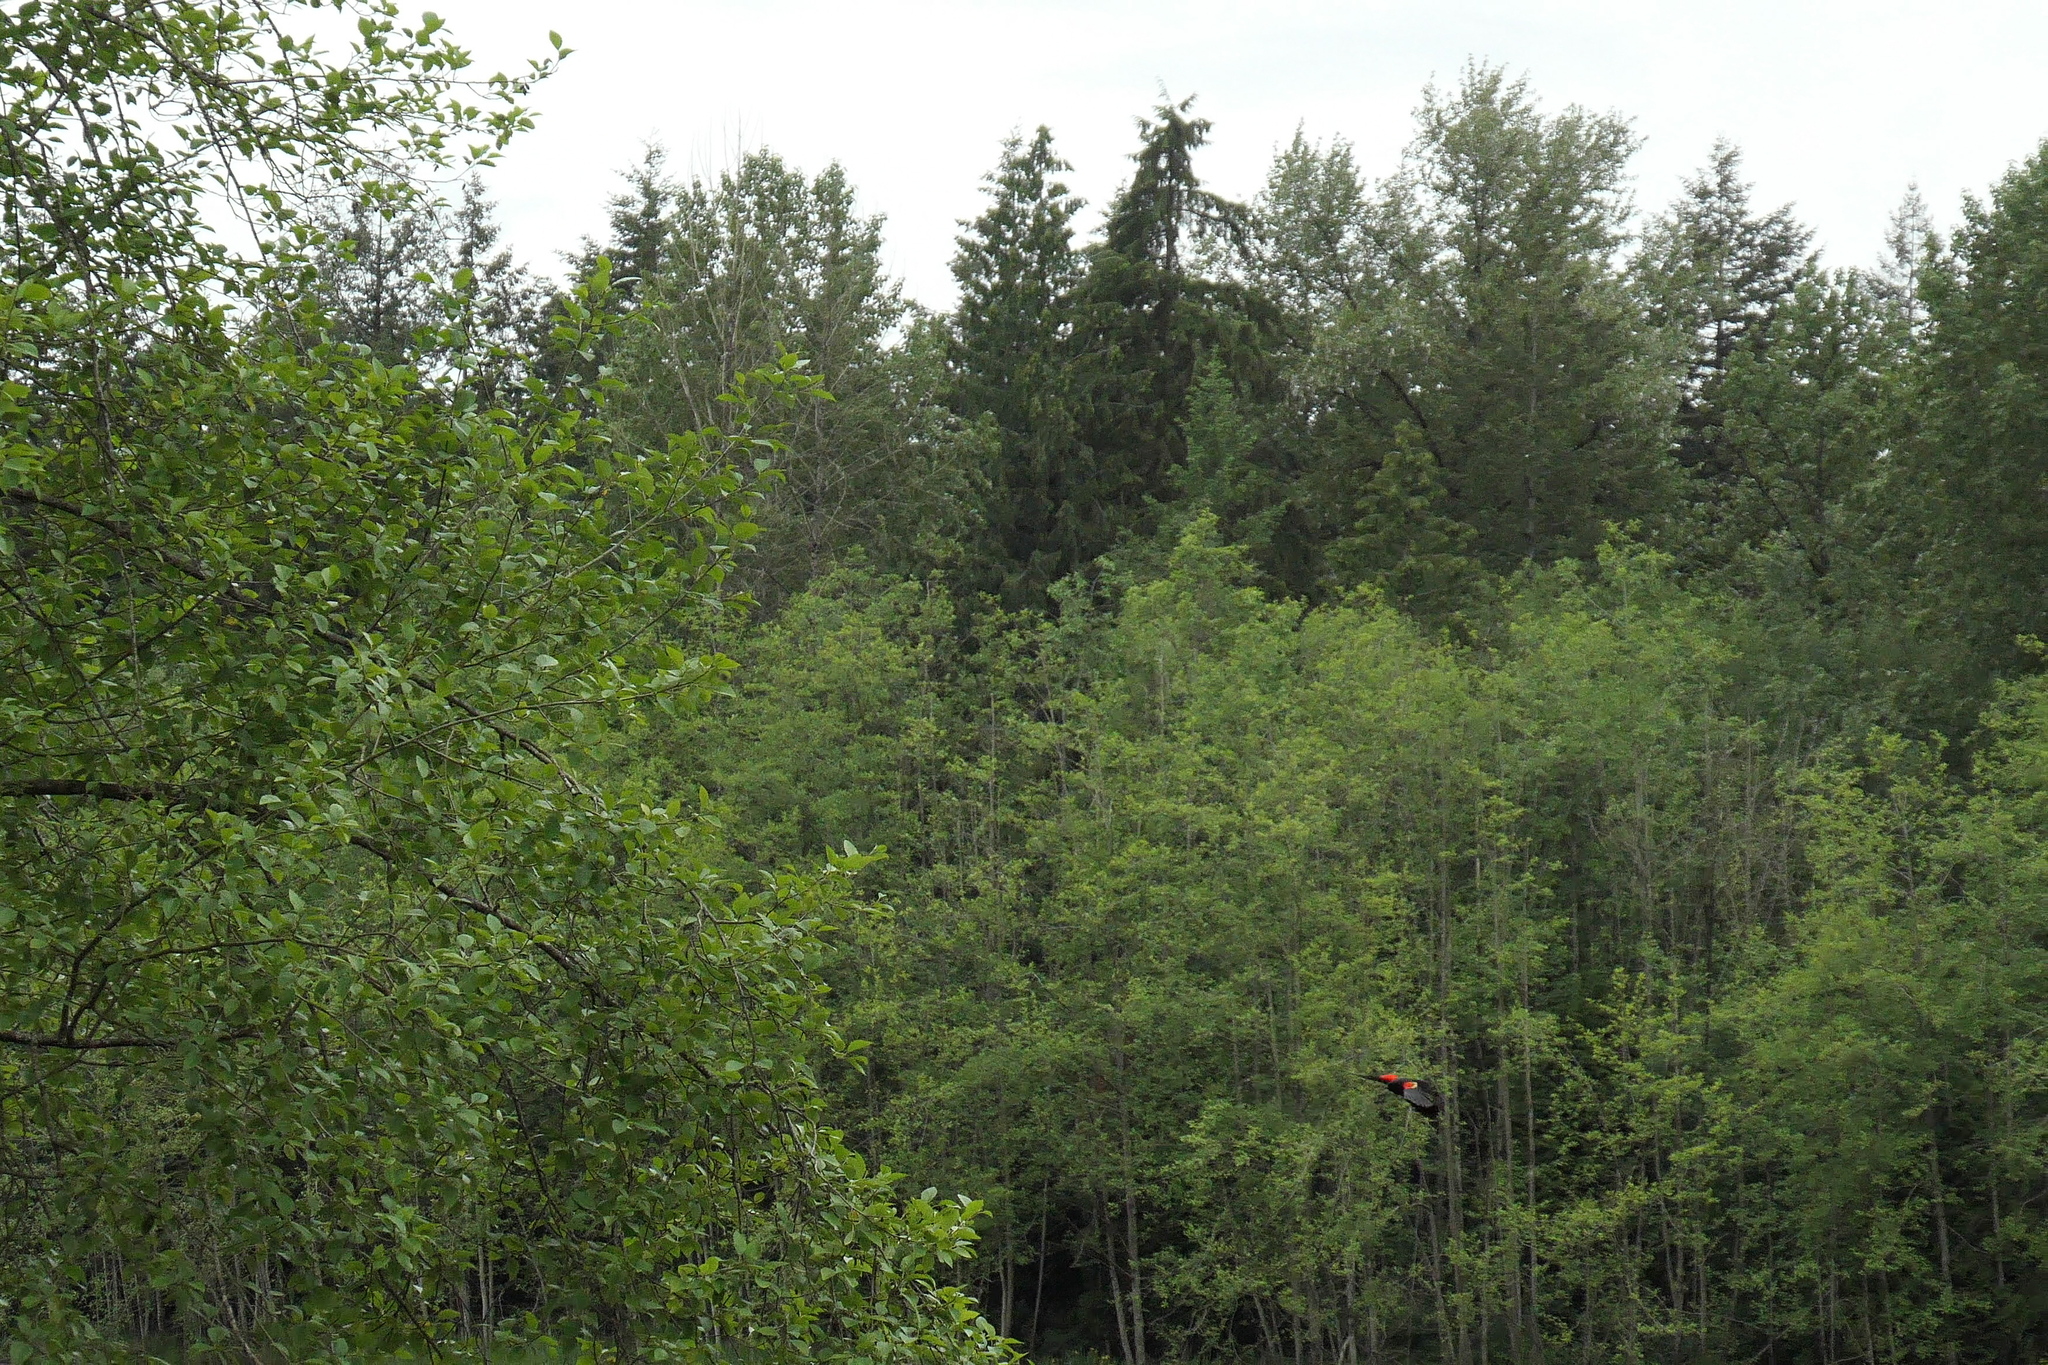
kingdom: Animalia
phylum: Chordata
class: Aves
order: Passeriformes
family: Icteridae
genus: Agelaius
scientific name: Agelaius phoeniceus
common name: Red-winged blackbird
